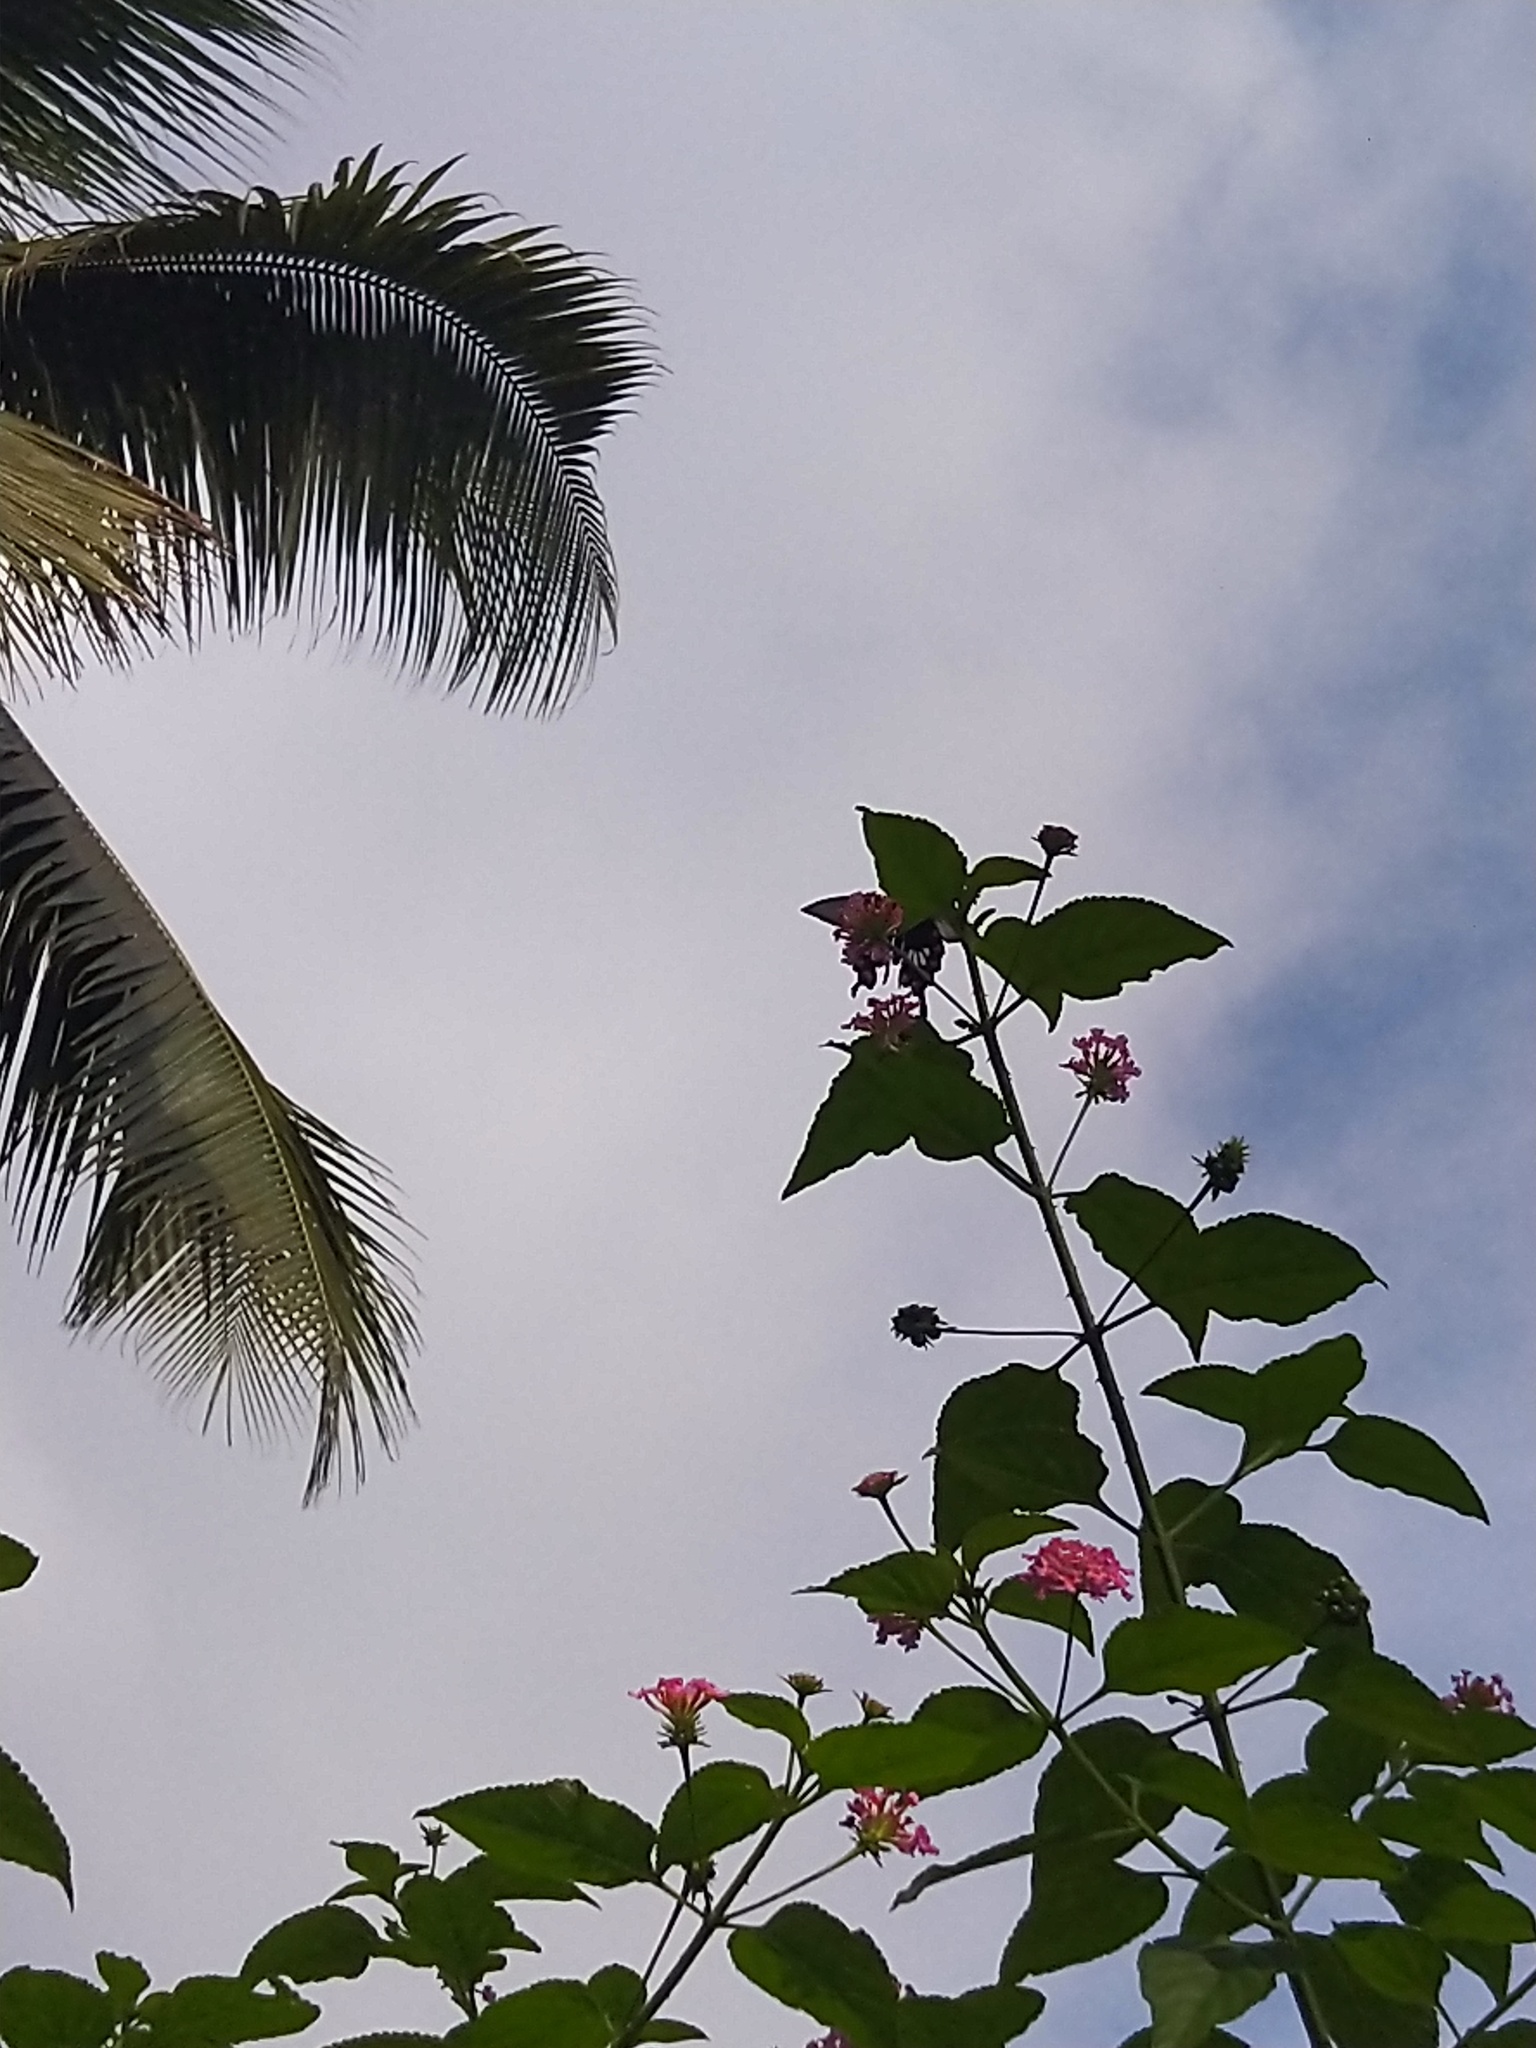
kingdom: Animalia
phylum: Arthropoda
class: Insecta
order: Lepidoptera
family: Papilionidae
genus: Pachliopta
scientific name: Pachliopta aristolochiae
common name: Common rose
